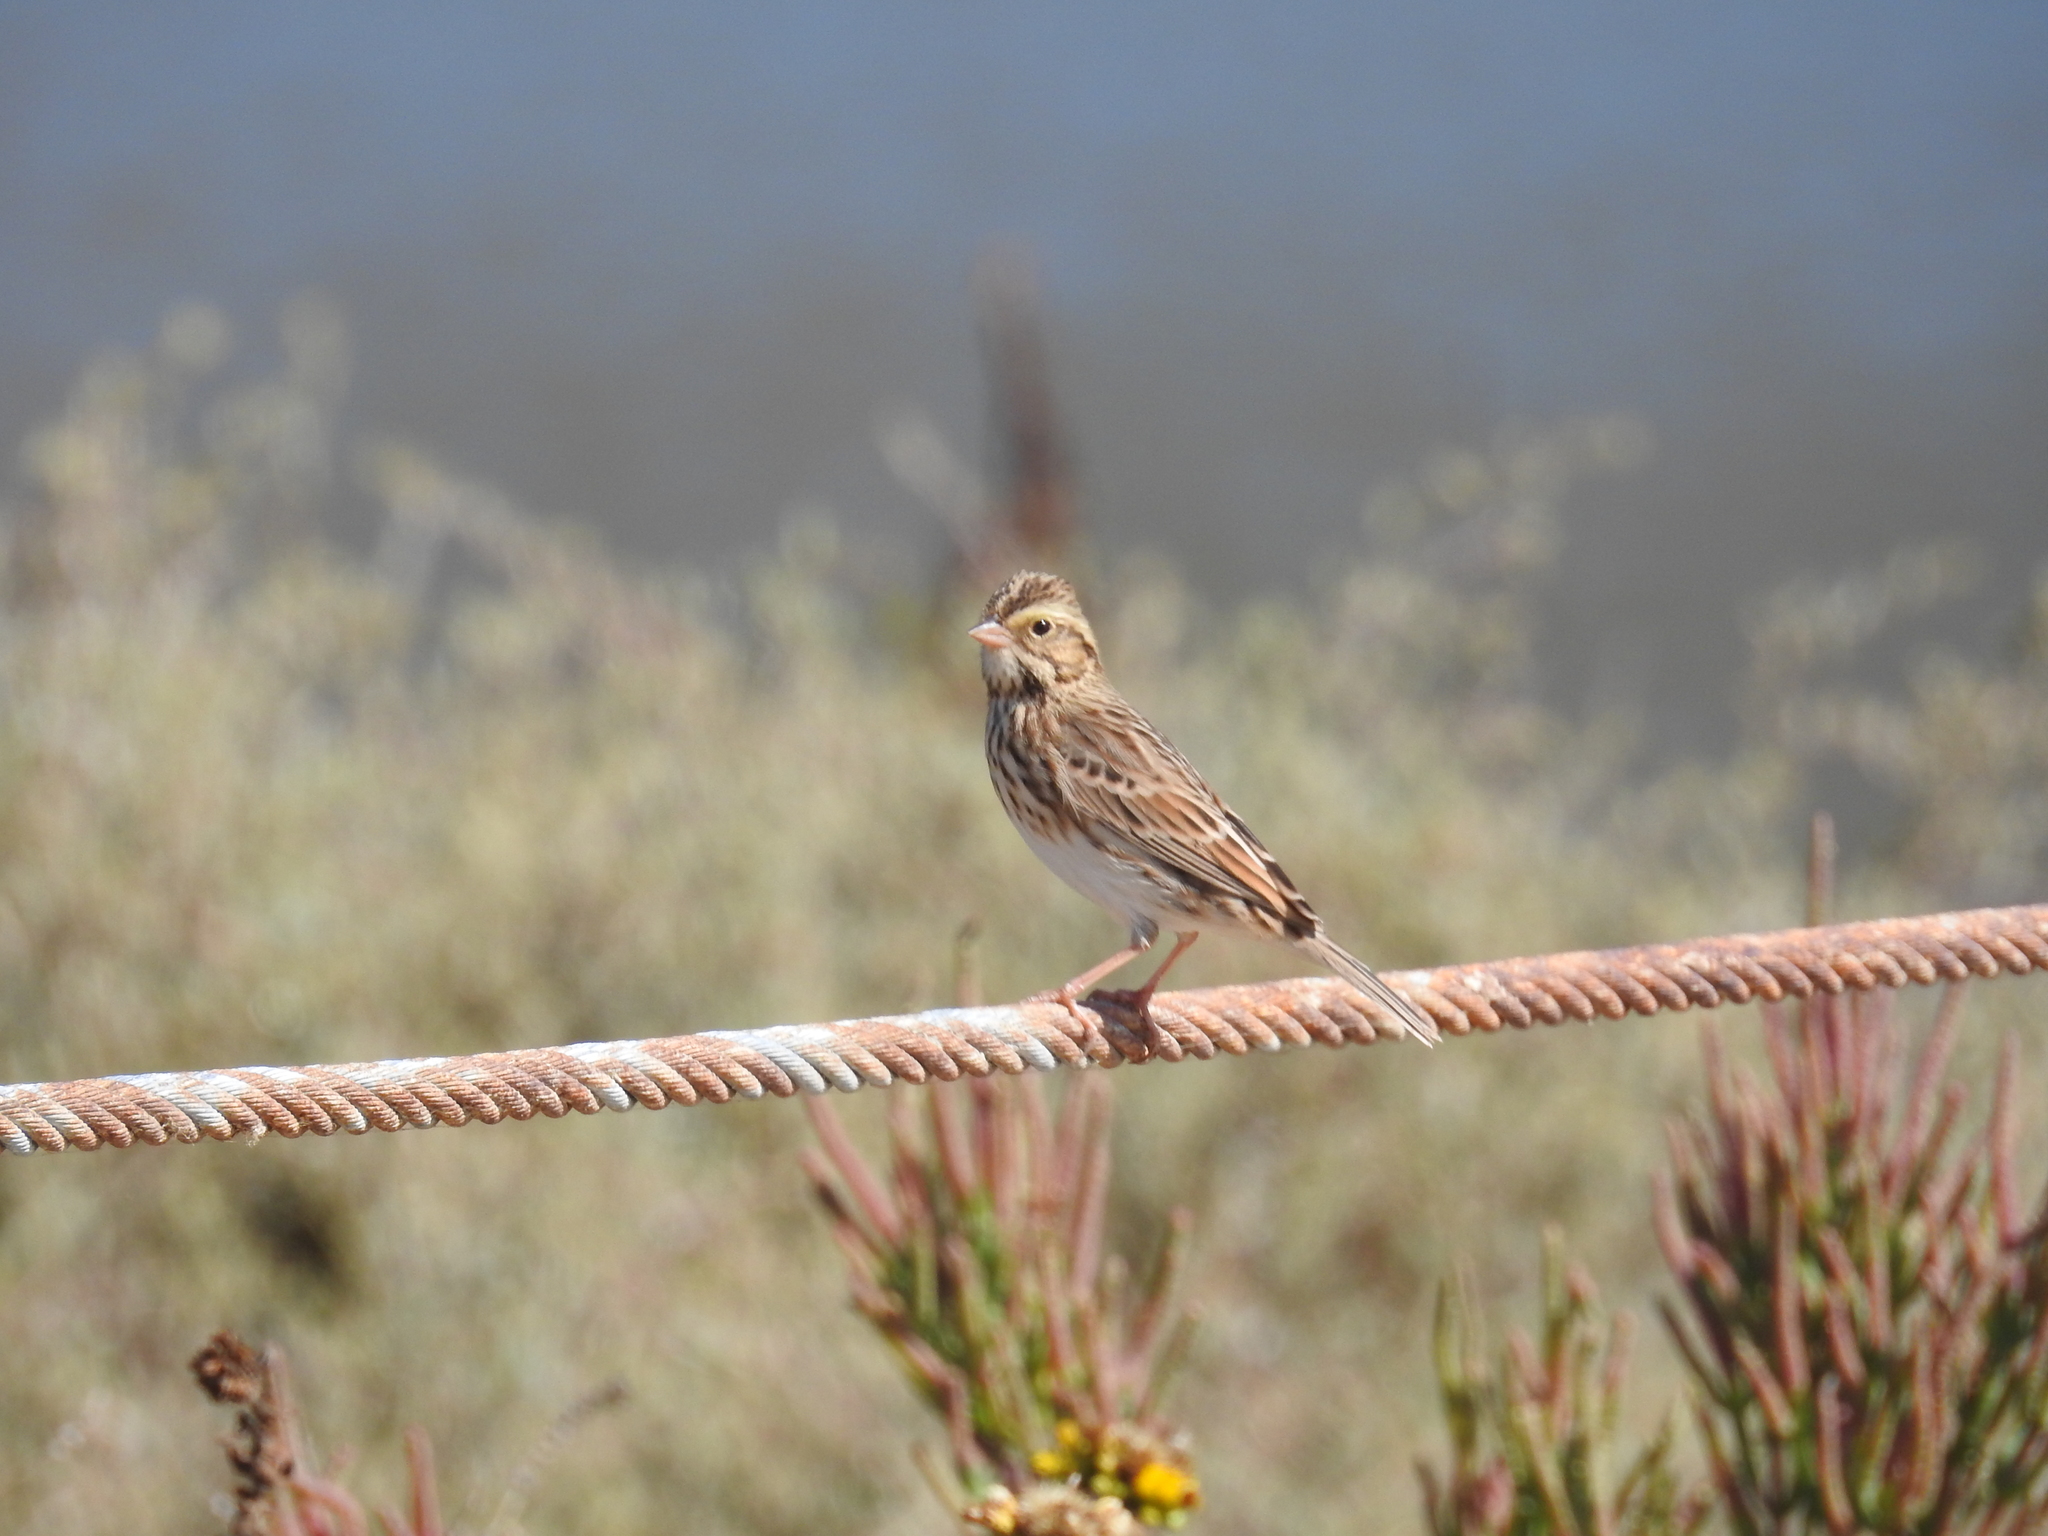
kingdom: Animalia
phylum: Chordata
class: Aves
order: Passeriformes
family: Passerellidae
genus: Passerculus
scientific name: Passerculus sandwichensis
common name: Savannah sparrow
